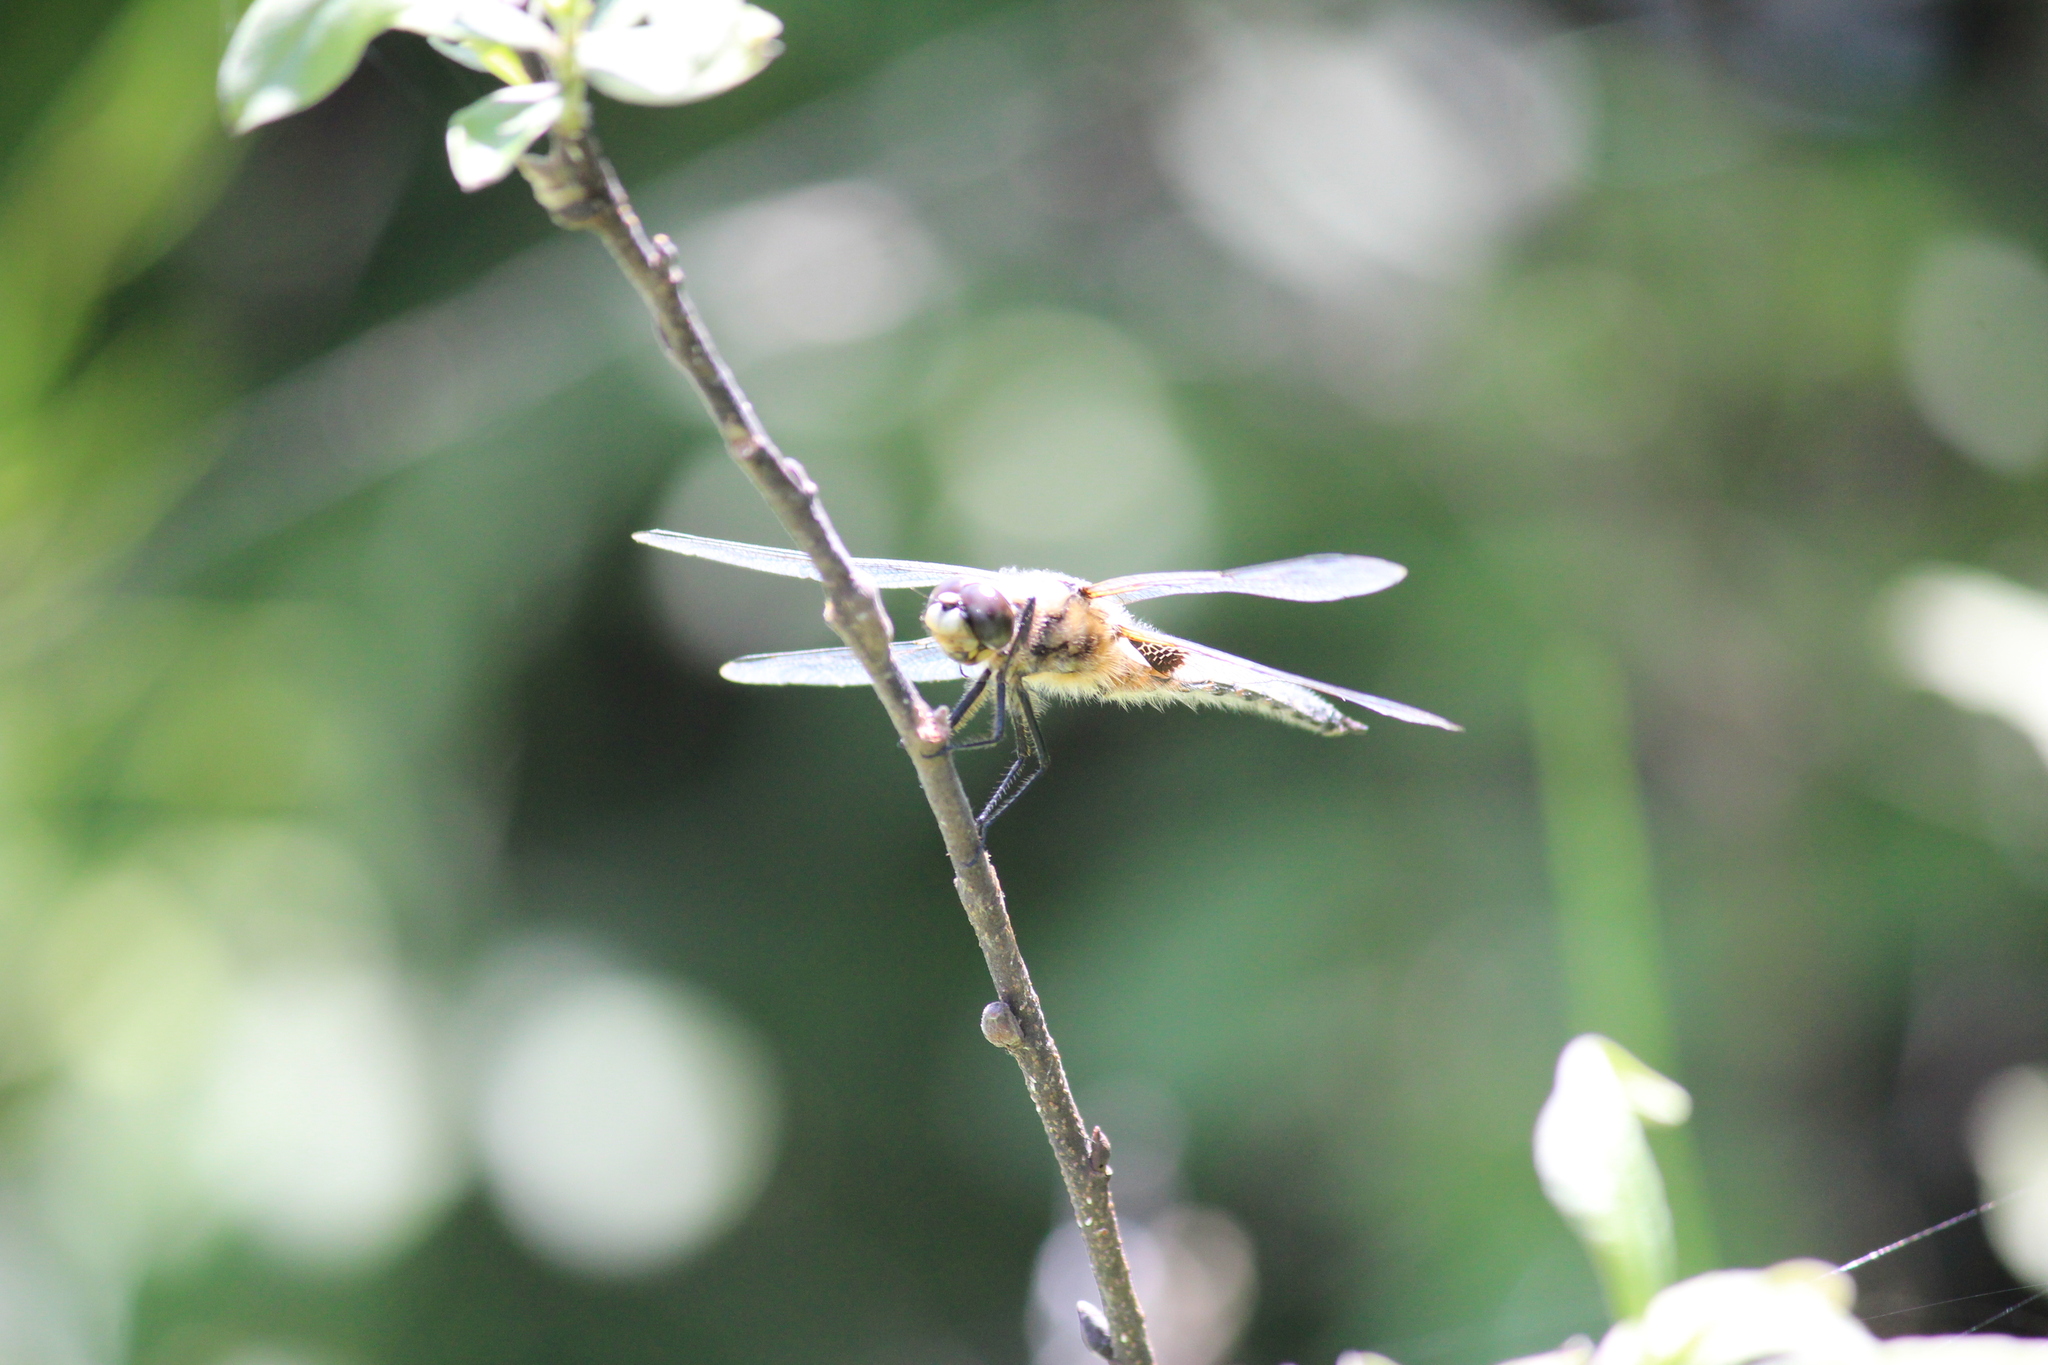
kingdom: Animalia
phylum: Arthropoda
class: Insecta
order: Odonata
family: Libellulidae
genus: Libellula
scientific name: Libellula quadrimaculata
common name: Four-spotted chaser
